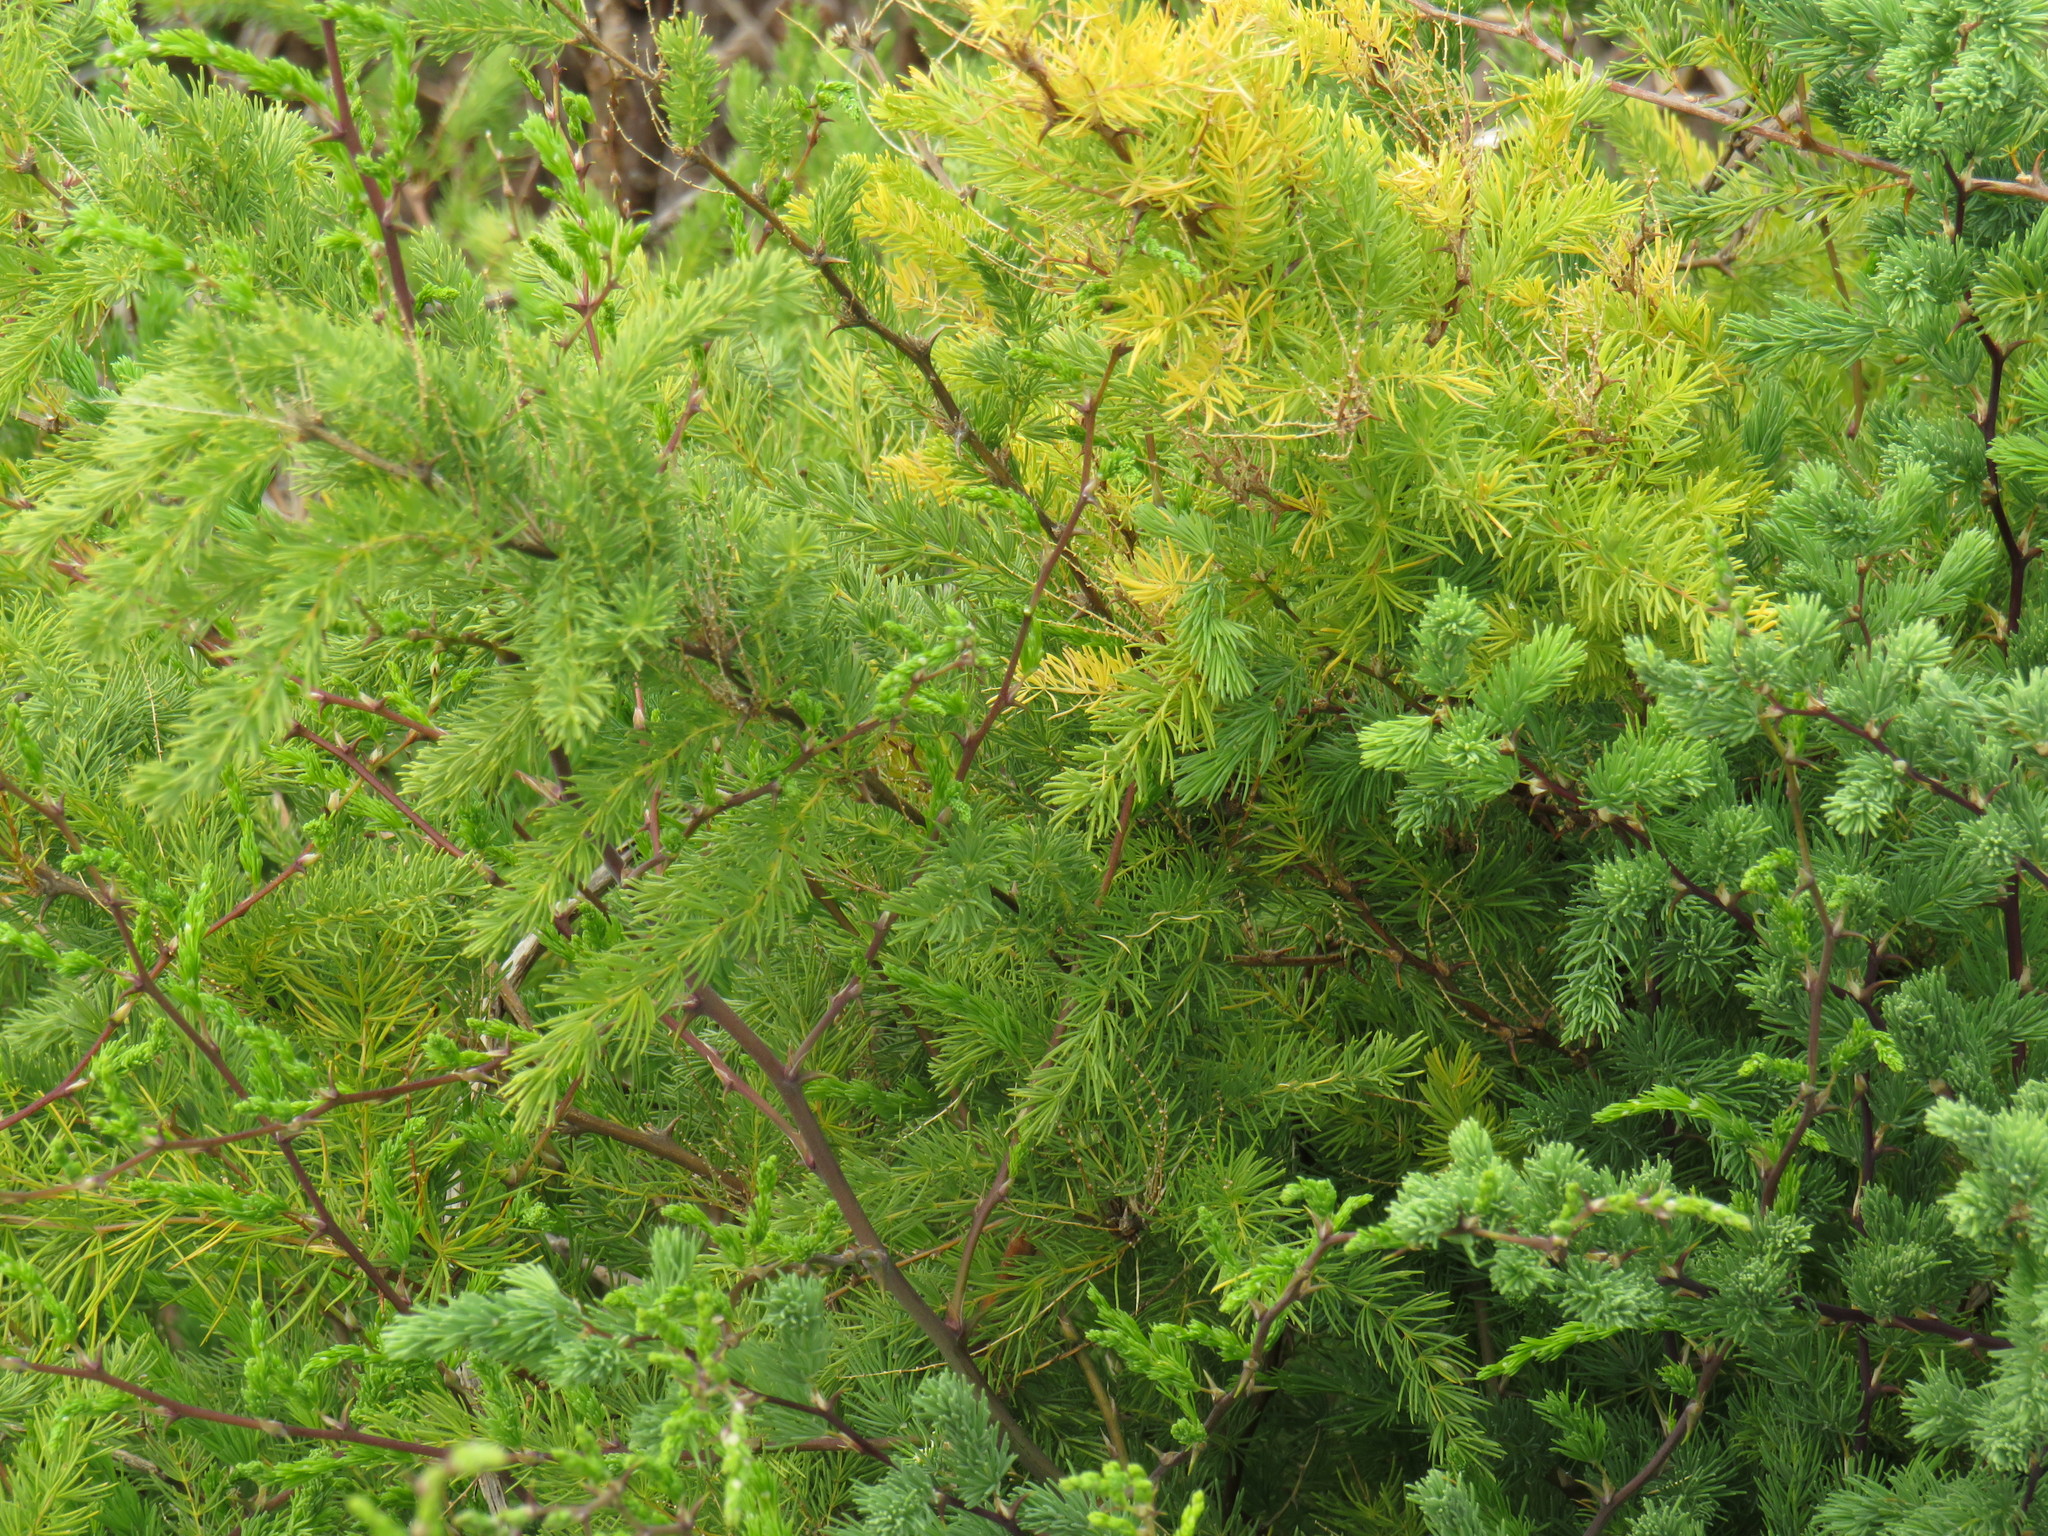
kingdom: Plantae
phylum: Tracheophyta
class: Liliopsida
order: Asparagales
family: Asparagaceae
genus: Asparagus
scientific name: Asparagus rubicundus
